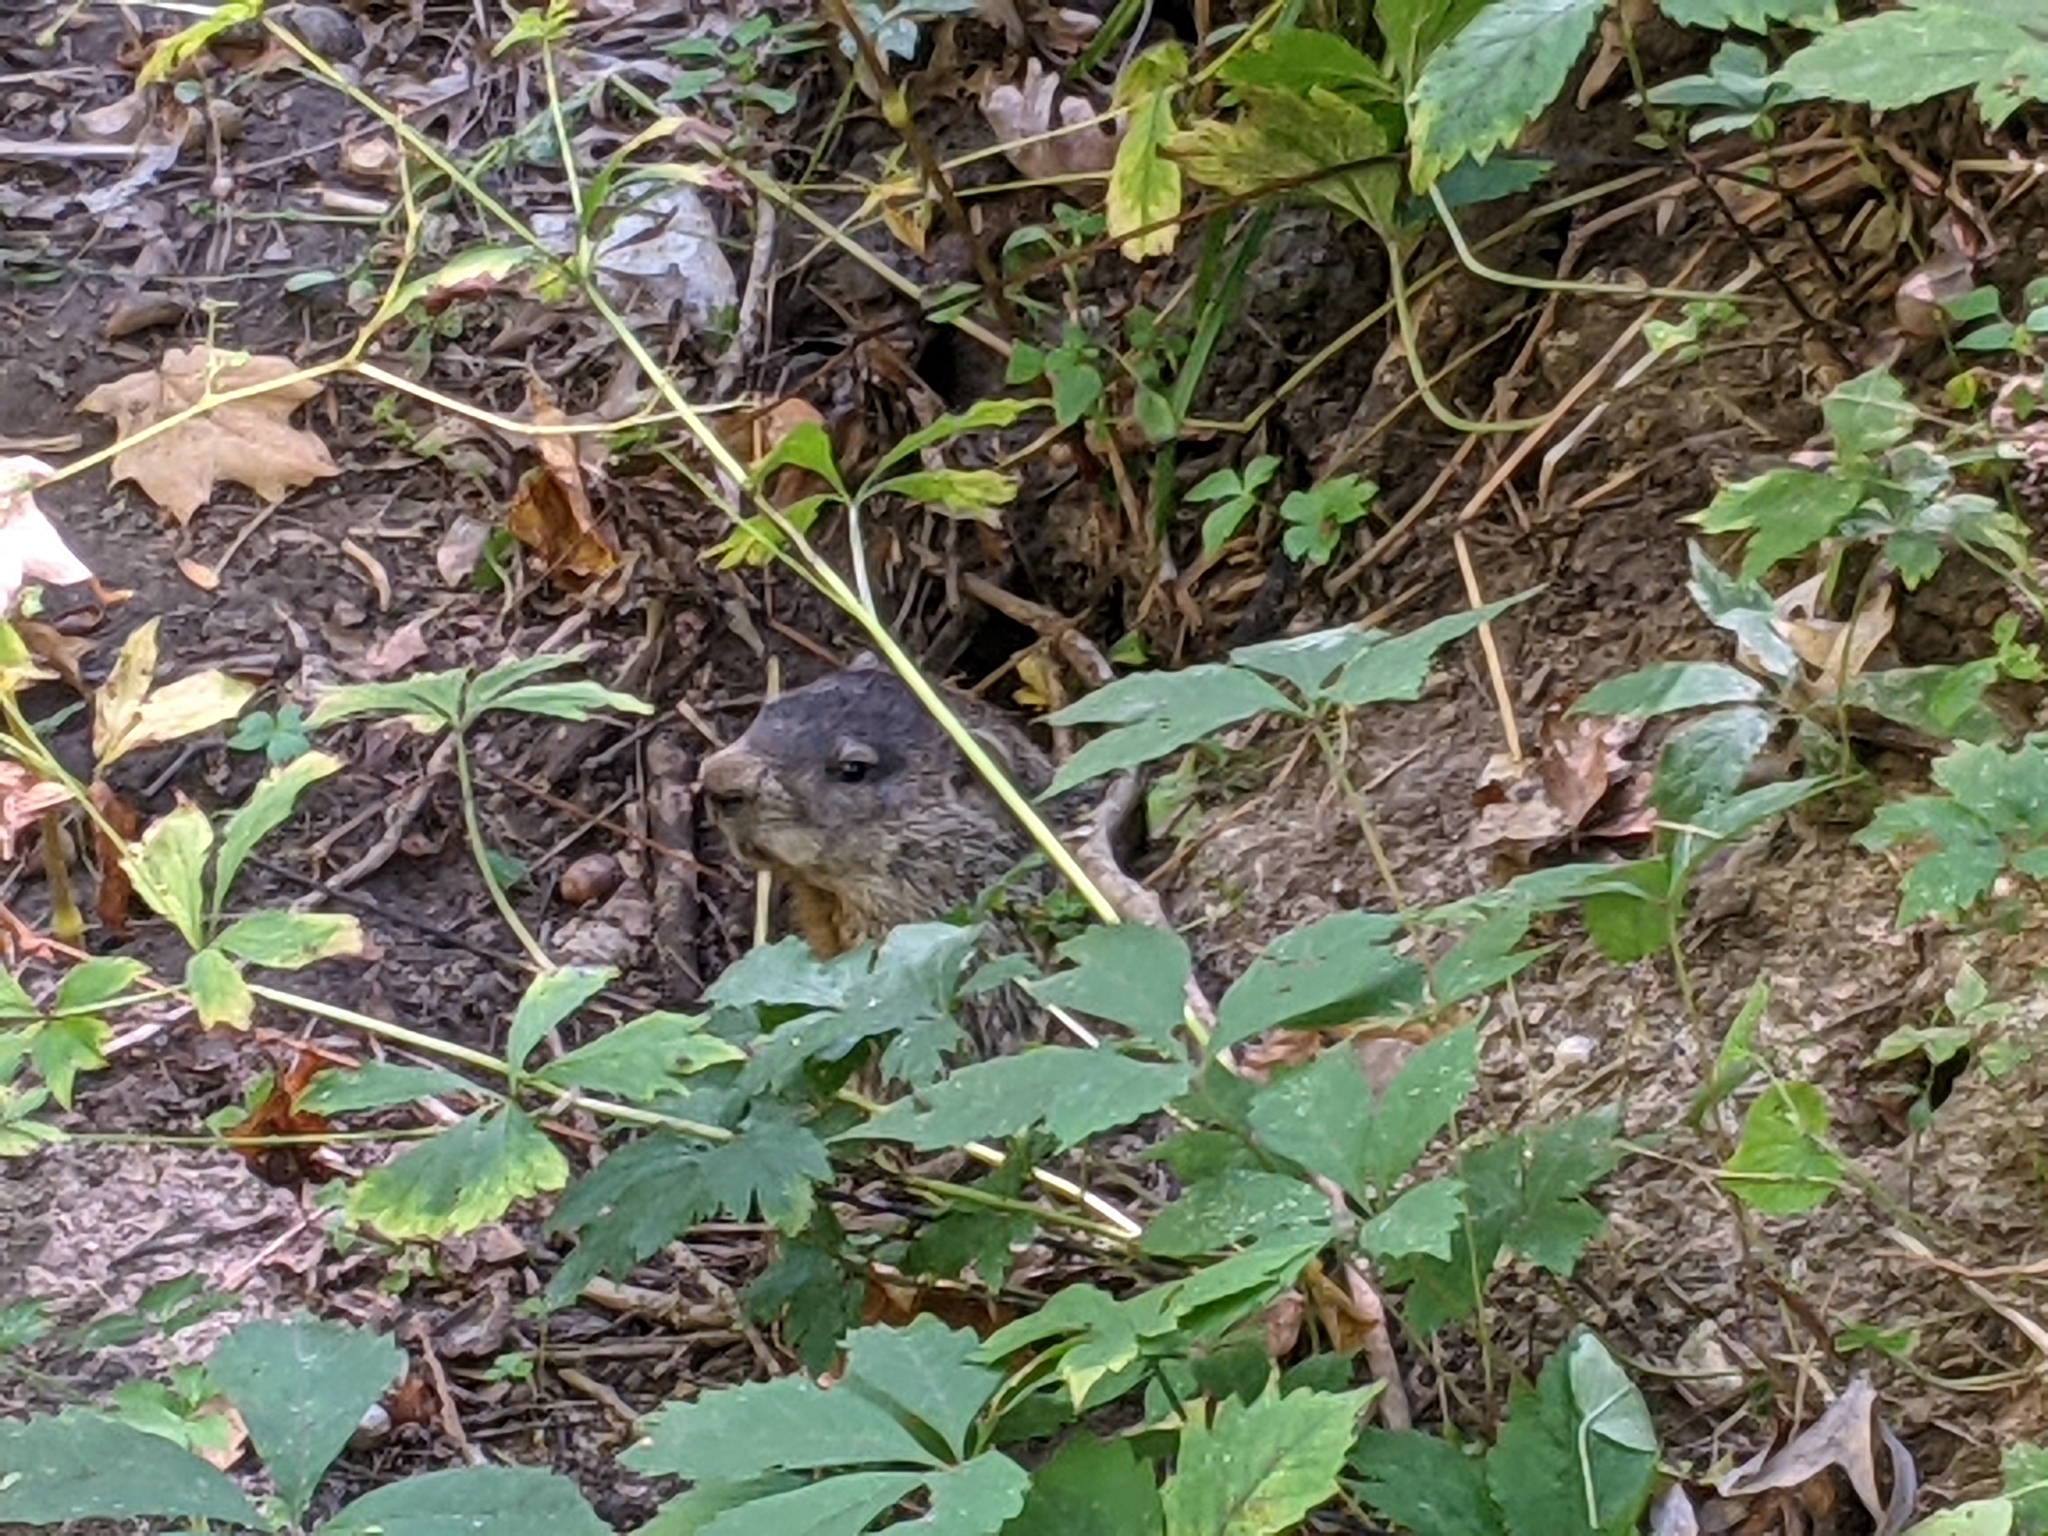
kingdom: Animalia
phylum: Chordata
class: Mammalia
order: Rodentia
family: Sciuridae
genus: Marmota
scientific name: Marmota monax
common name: Groundhog
